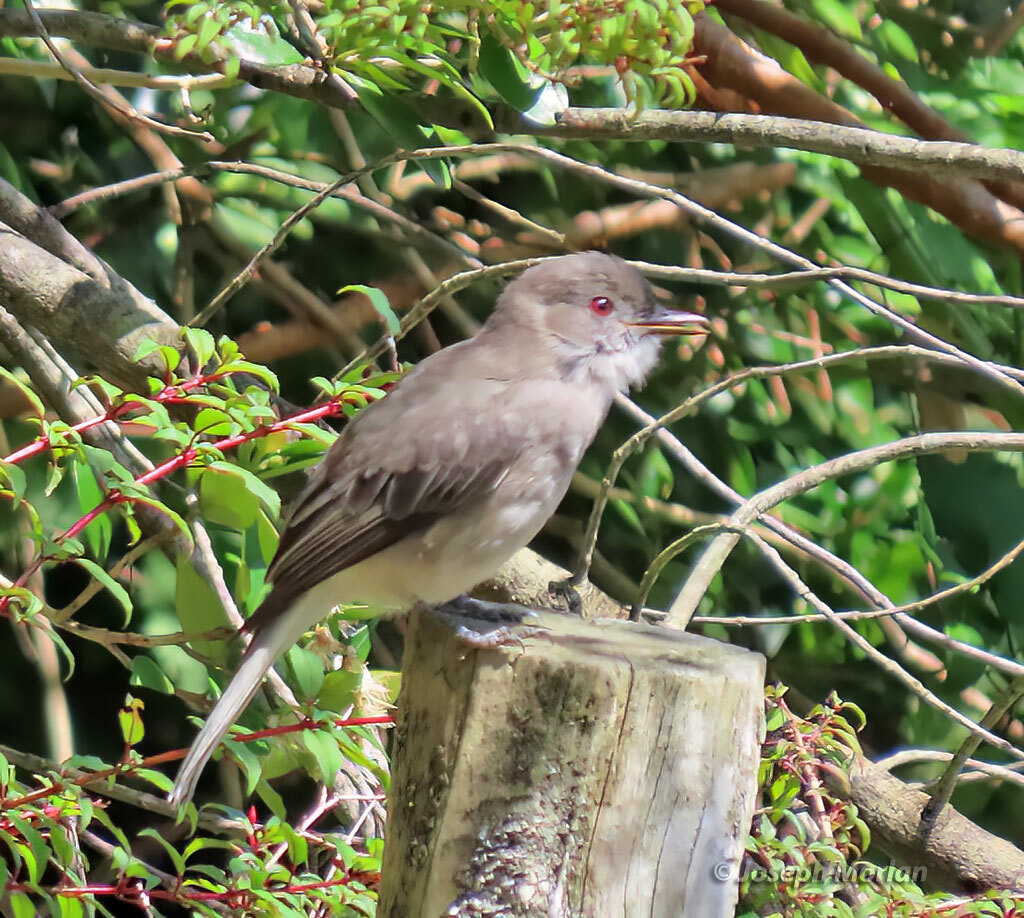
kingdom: Animalia
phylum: Chordata
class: Aves
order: Passeriformes
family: Tyrannidae
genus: Xolmis
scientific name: Xolmis pyrope
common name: Fire-eyed diucon
